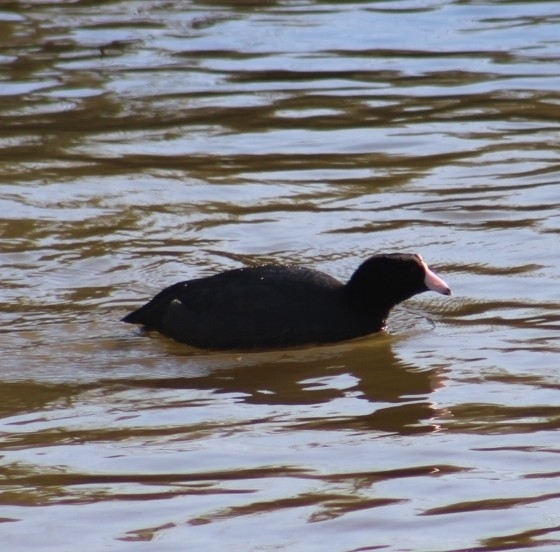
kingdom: Animalia
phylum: Chordata
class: Aves
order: Gruiformes
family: Rallidae
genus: Fulica
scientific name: Fulica americana
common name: American coot
